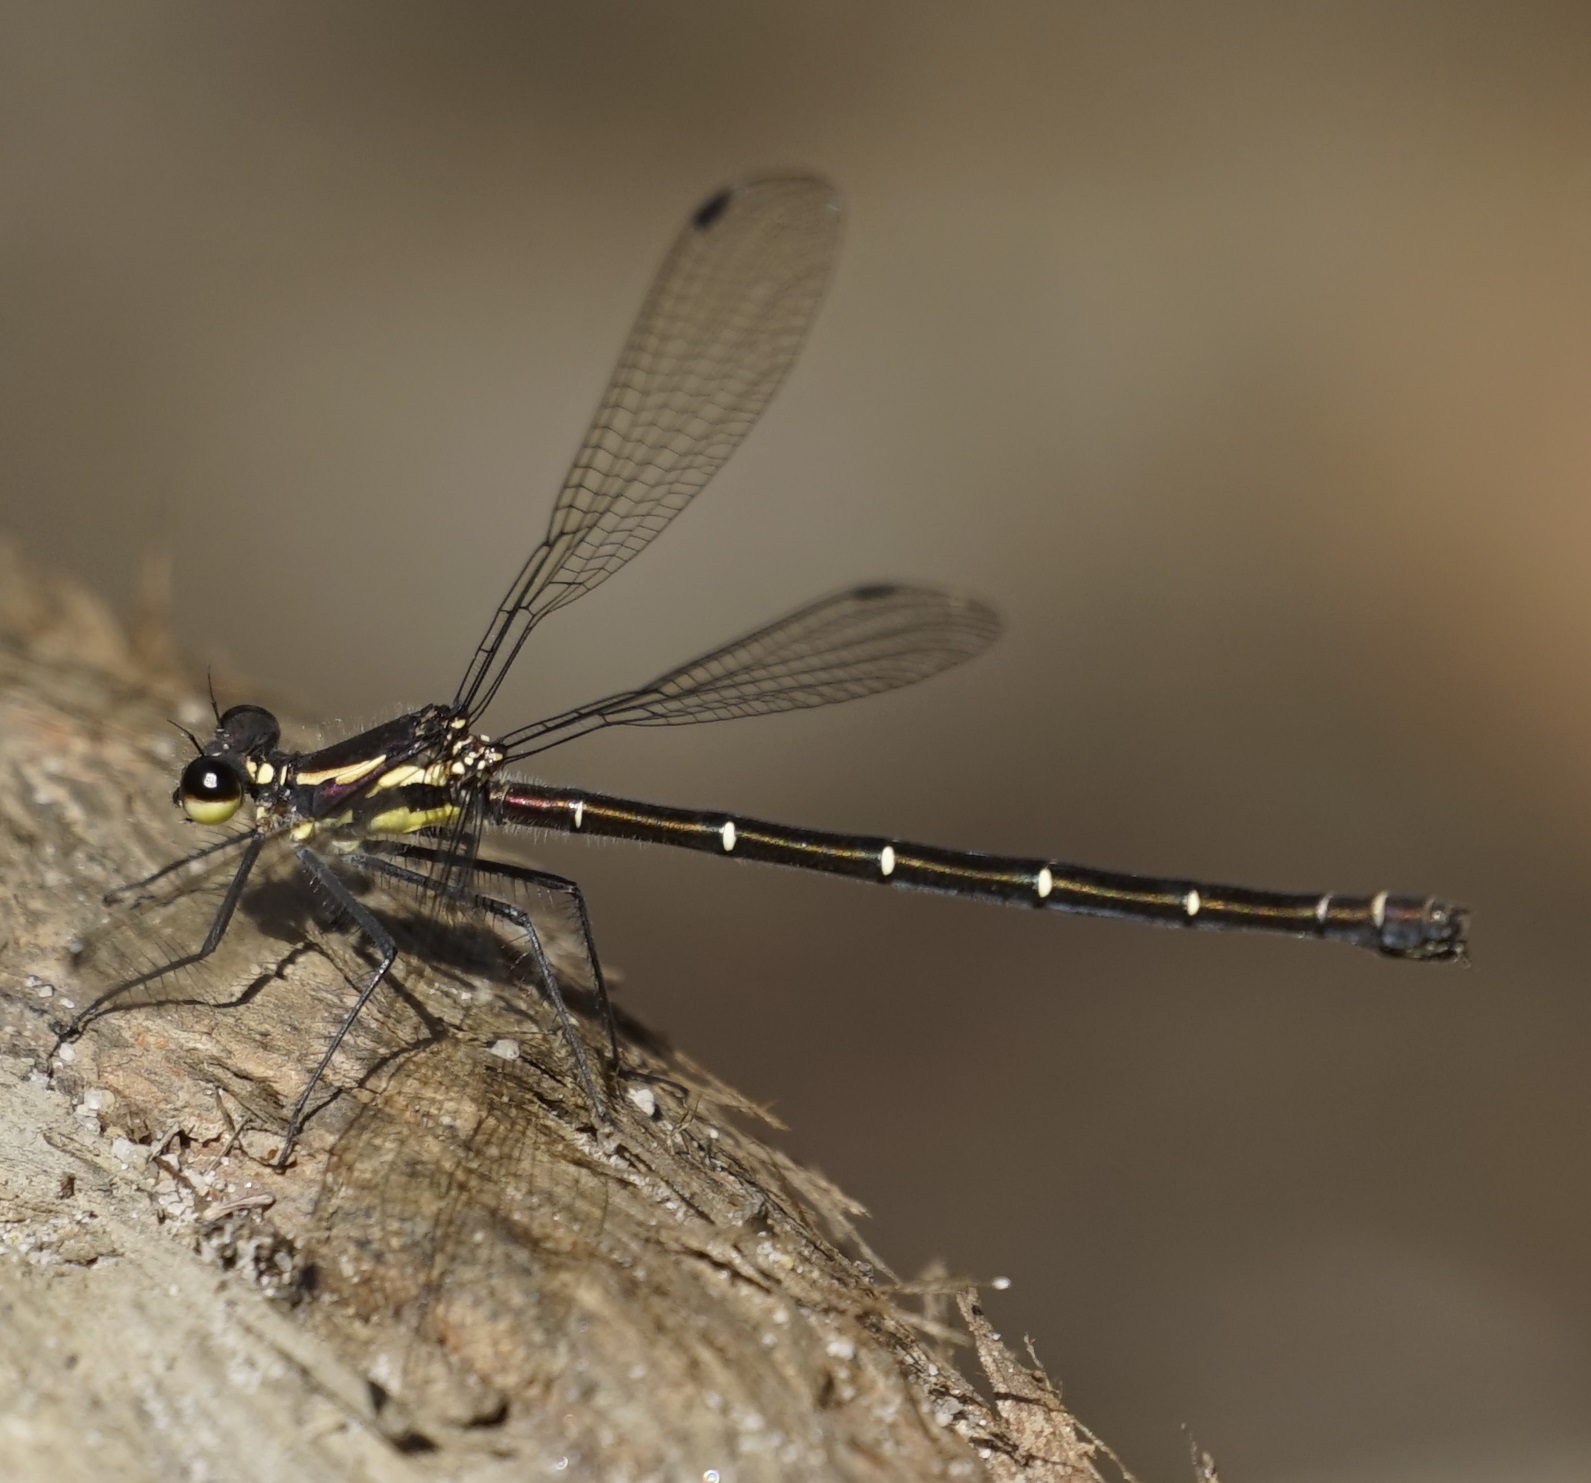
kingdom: Animalia
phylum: Arthropoda
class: Insecta
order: Odonata
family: Argiolestidae
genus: Austroargiolestes
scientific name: Austroargiolestes isabellae
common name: Sydney flatwing
